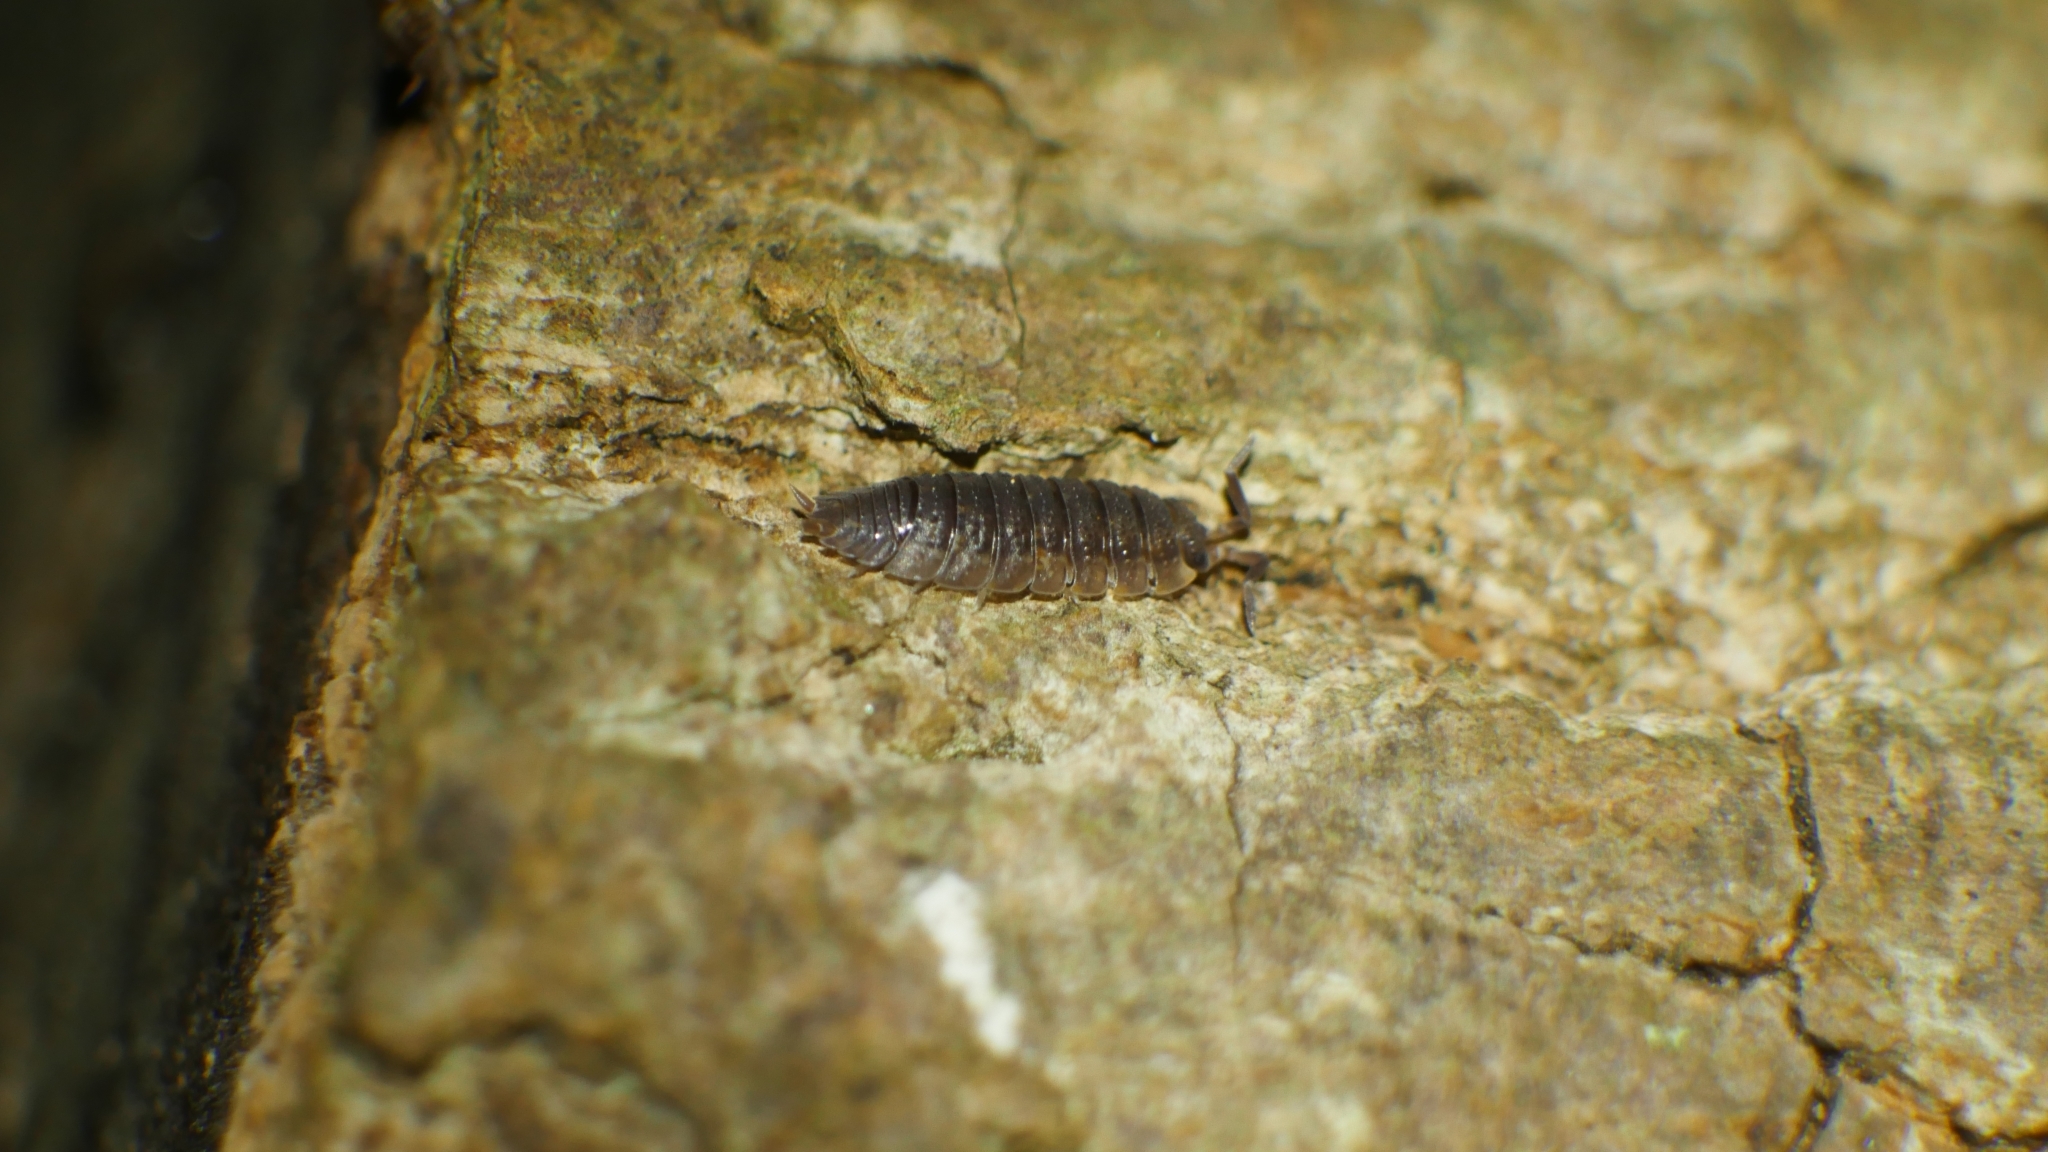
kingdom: Animalia
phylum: Arthropoda
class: Malacostraca
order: Isopoda
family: Porcellionidae
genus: Porcellio
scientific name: Porcellio scaber
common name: Common rough woodlouse
